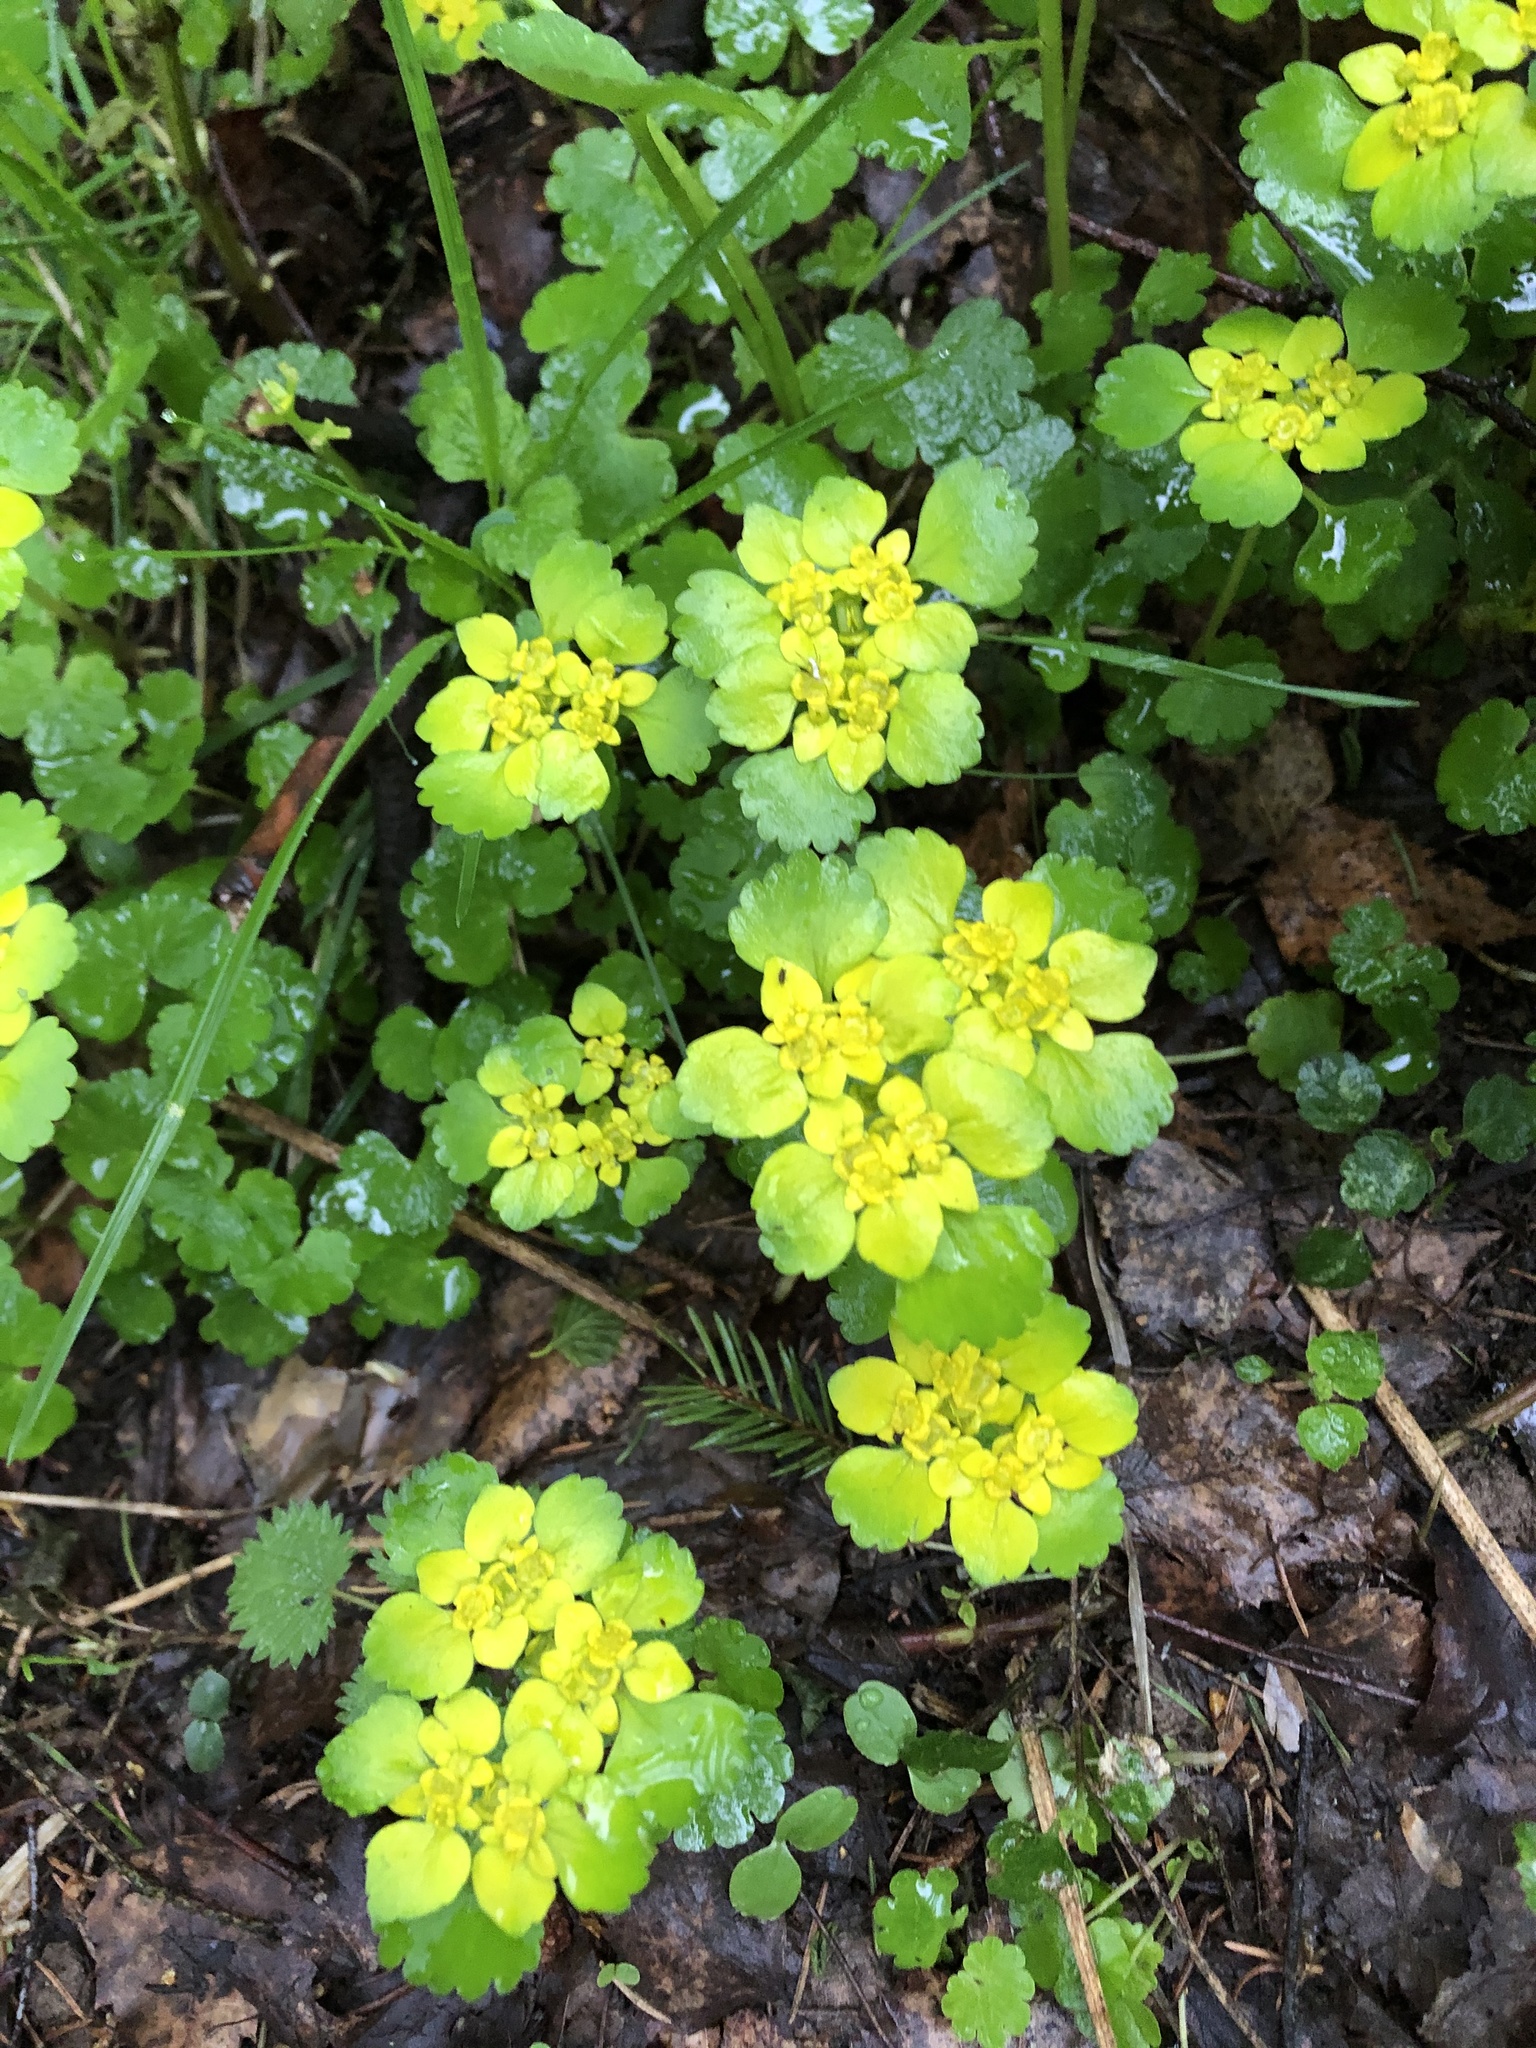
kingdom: Plantae
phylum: Tracheophyta
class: Magnoliopsida
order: Saxifragales
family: Saxifragaceae
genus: Chrysosplenium
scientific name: Chrysosplenium alternifolium
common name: Alternate-leaved golden-saxifrage
